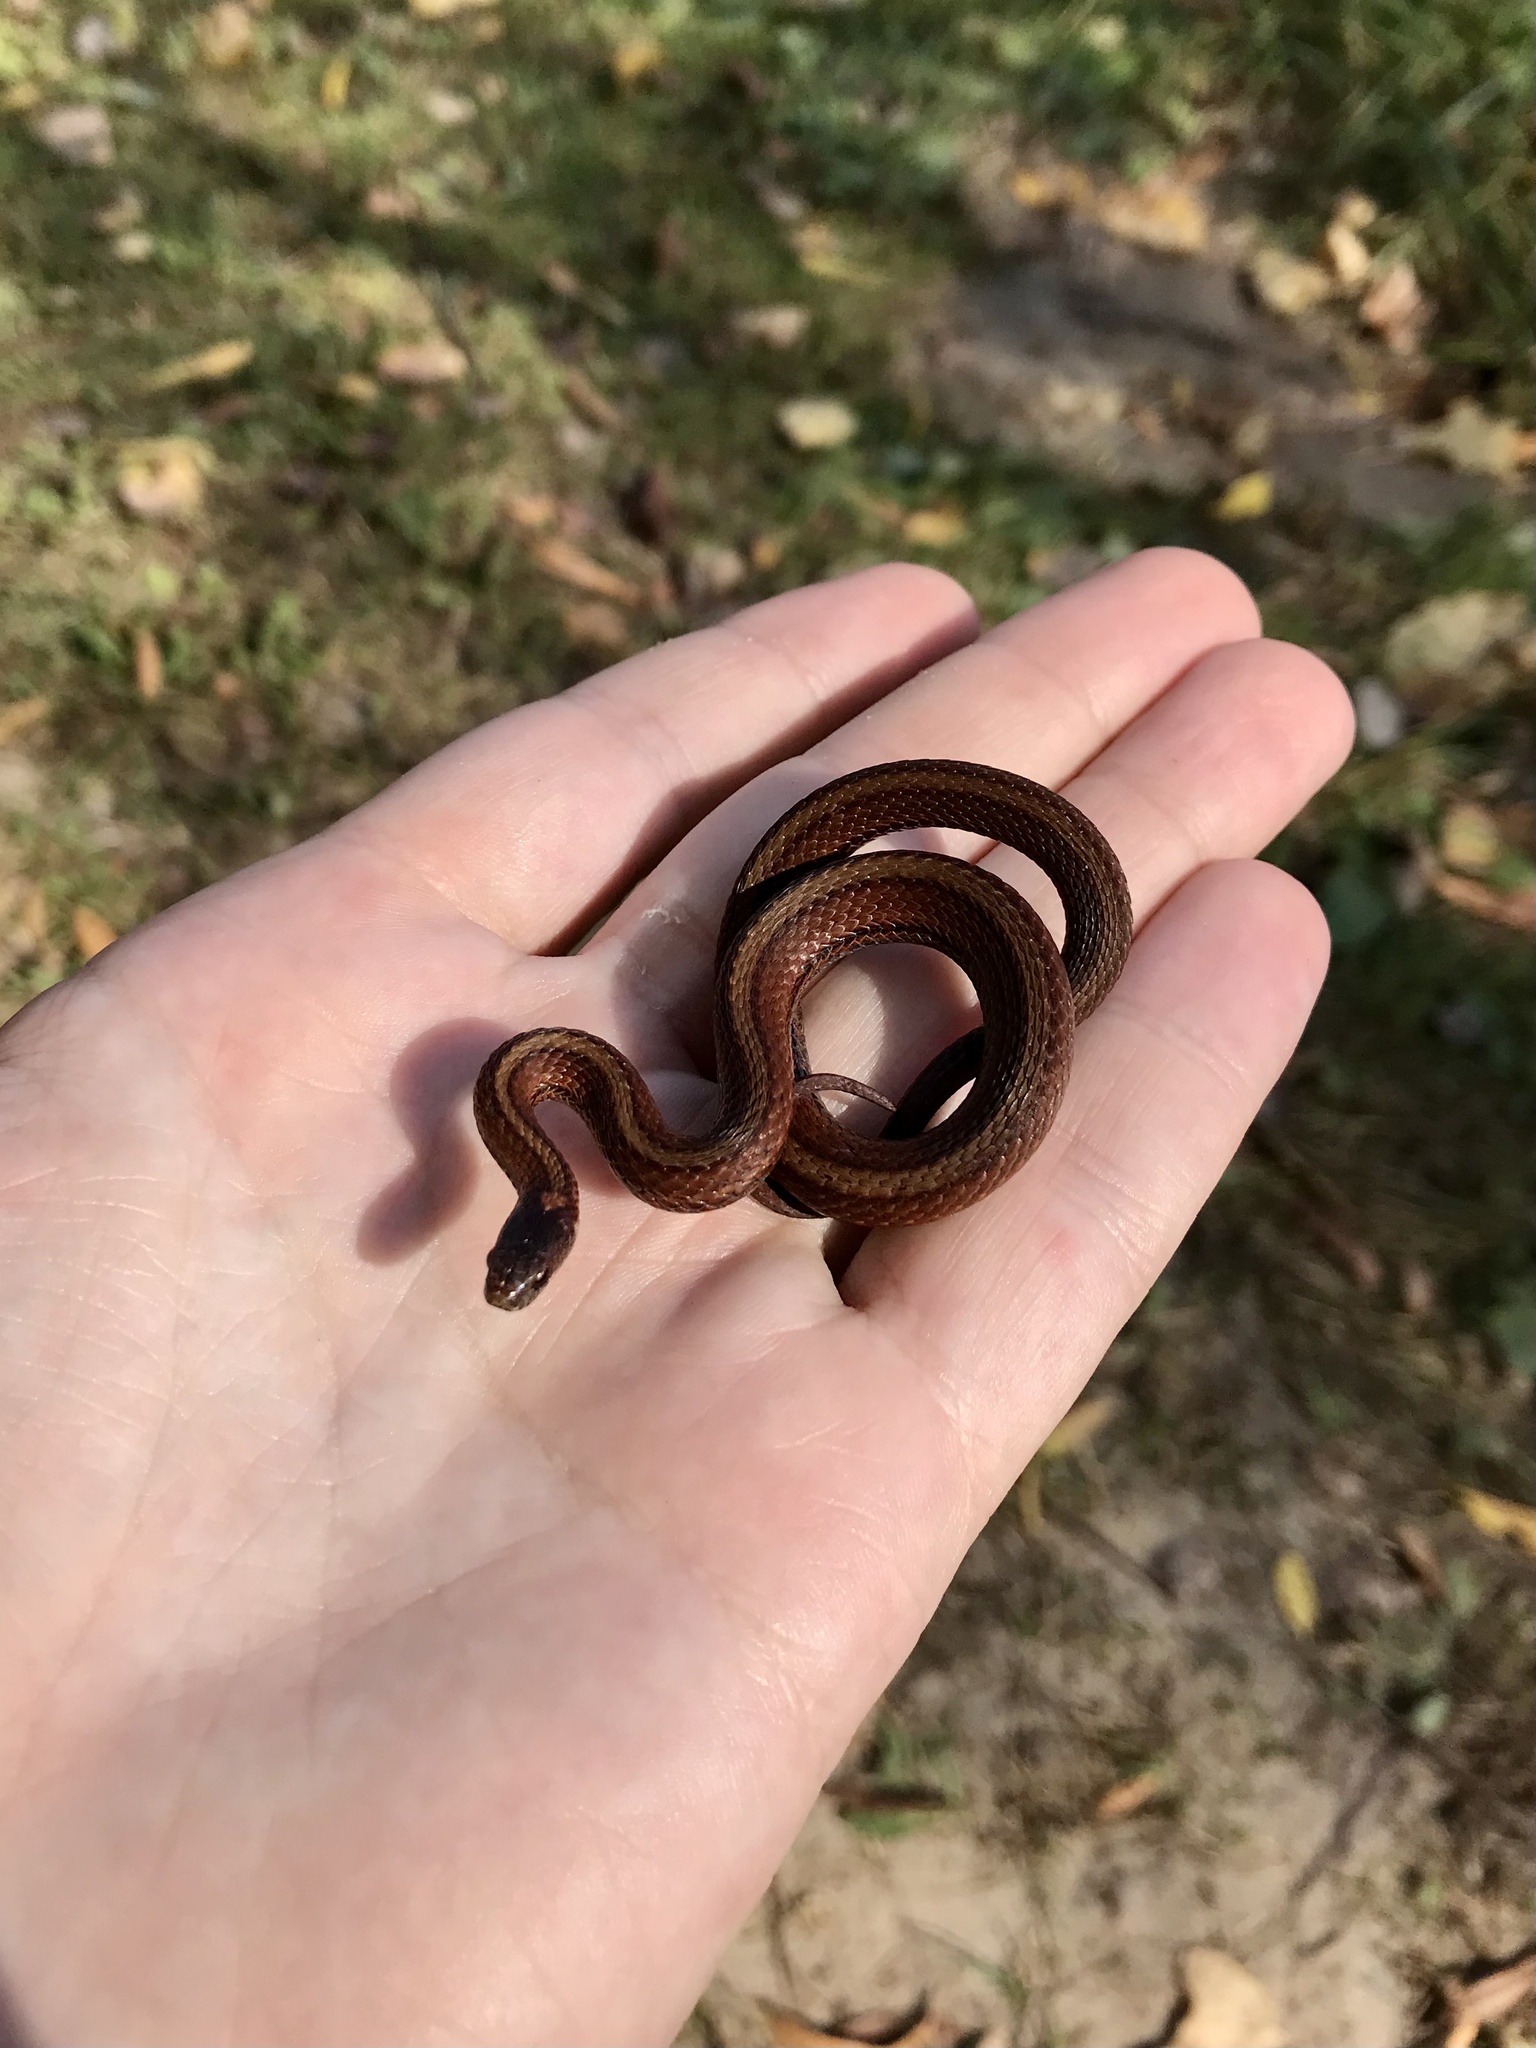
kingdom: Animalia
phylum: Chordata
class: Squamata
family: Colubridae
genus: Storeria
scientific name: Storeria occipitomaculata
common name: Redbelly snake
